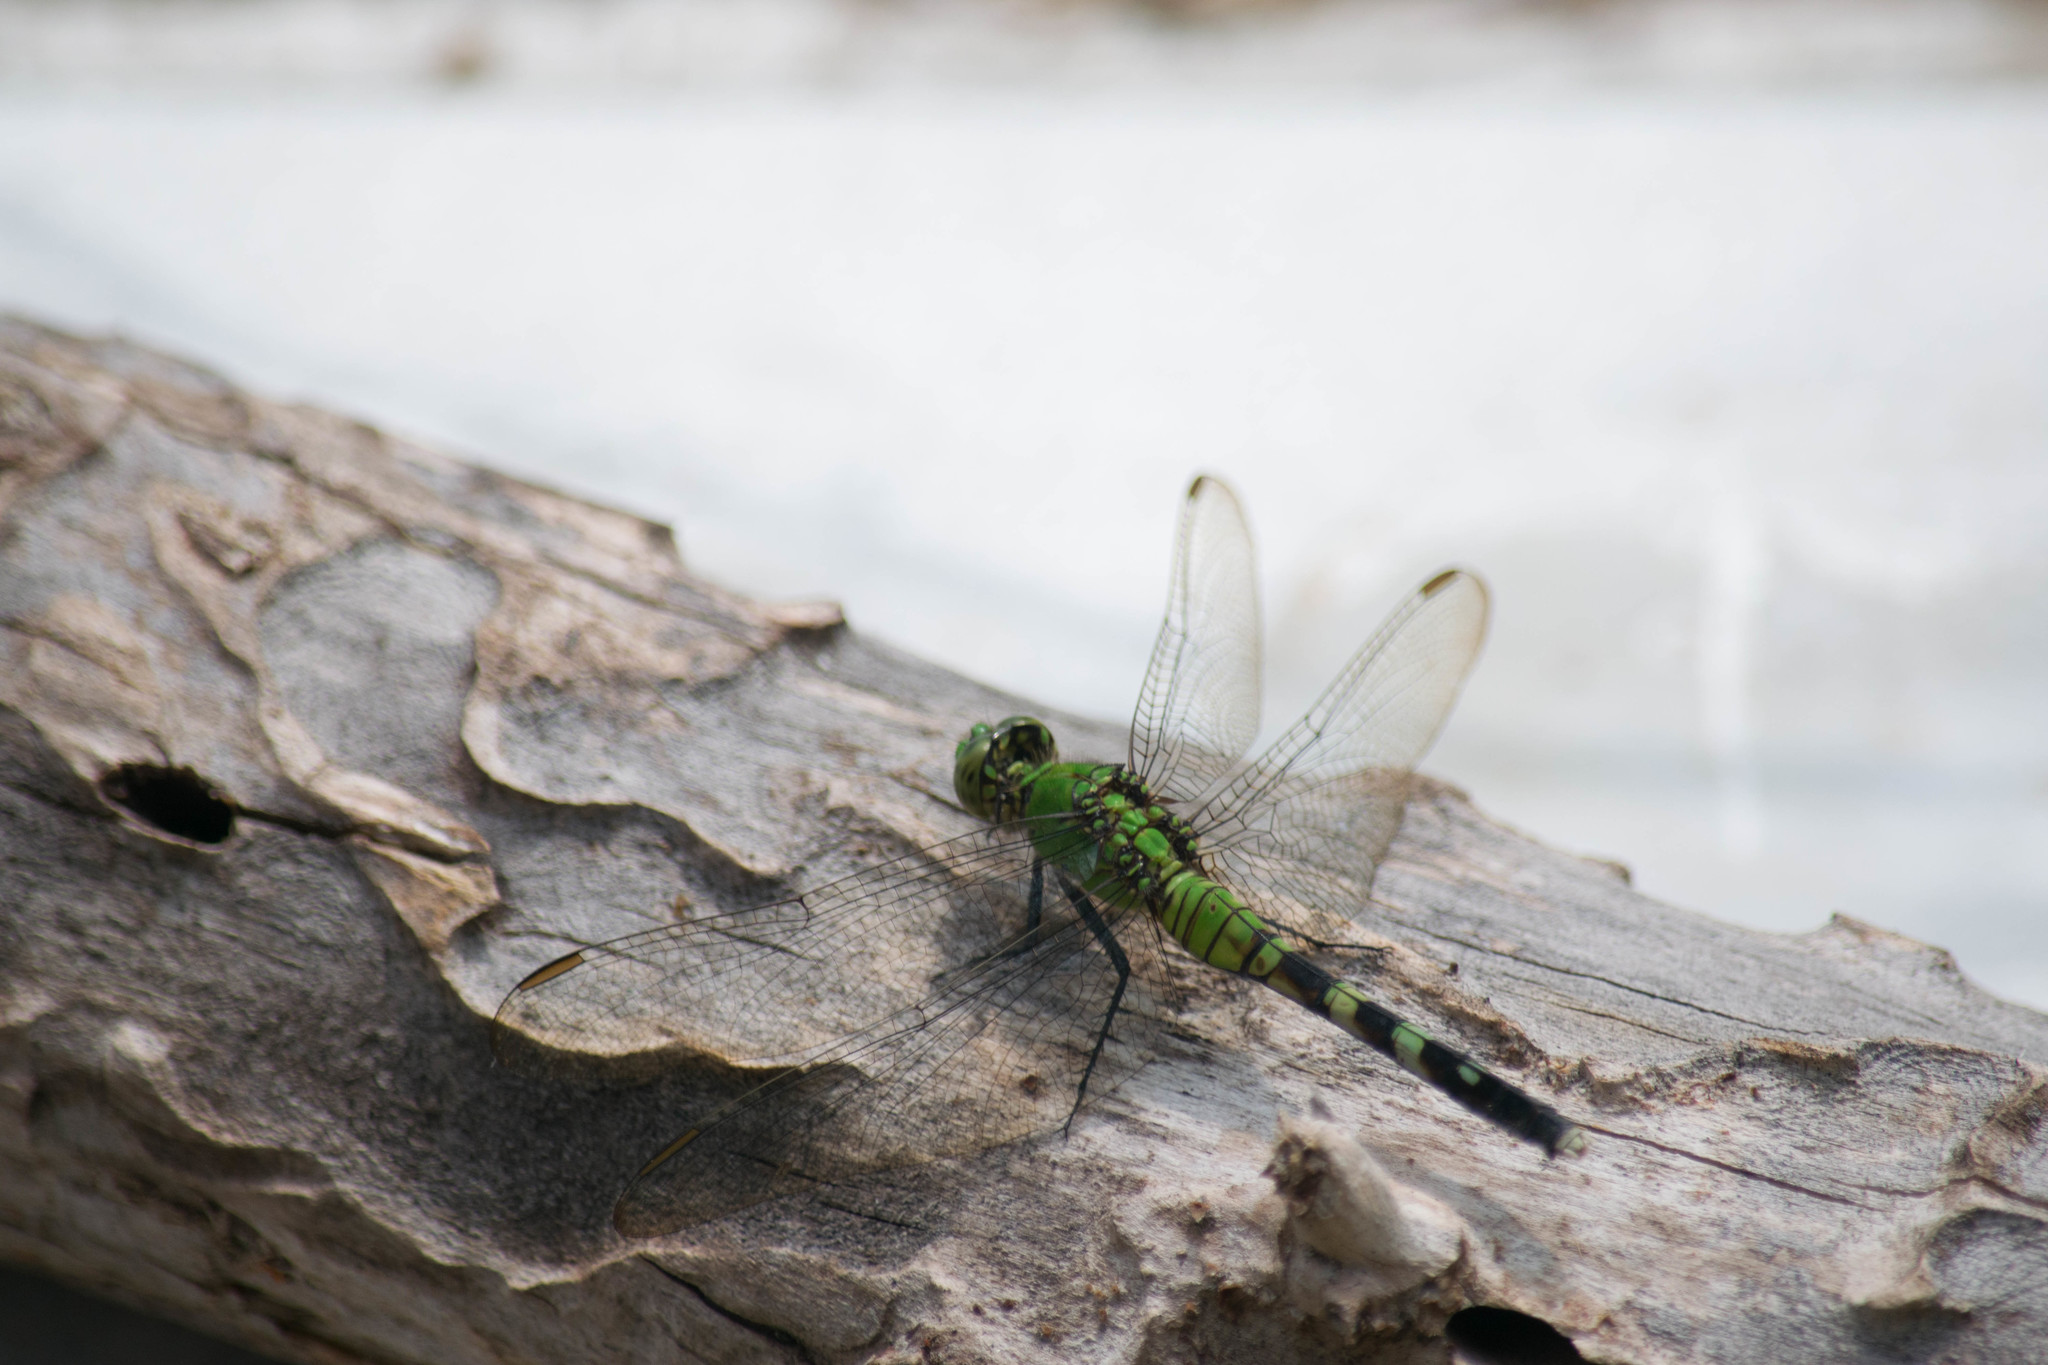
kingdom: Animalia
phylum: Arthropoda
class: Insecta
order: Odonata
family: Libellulidae
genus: Erythemis
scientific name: Erythemis simplicicollis
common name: Eastern pondhawk
